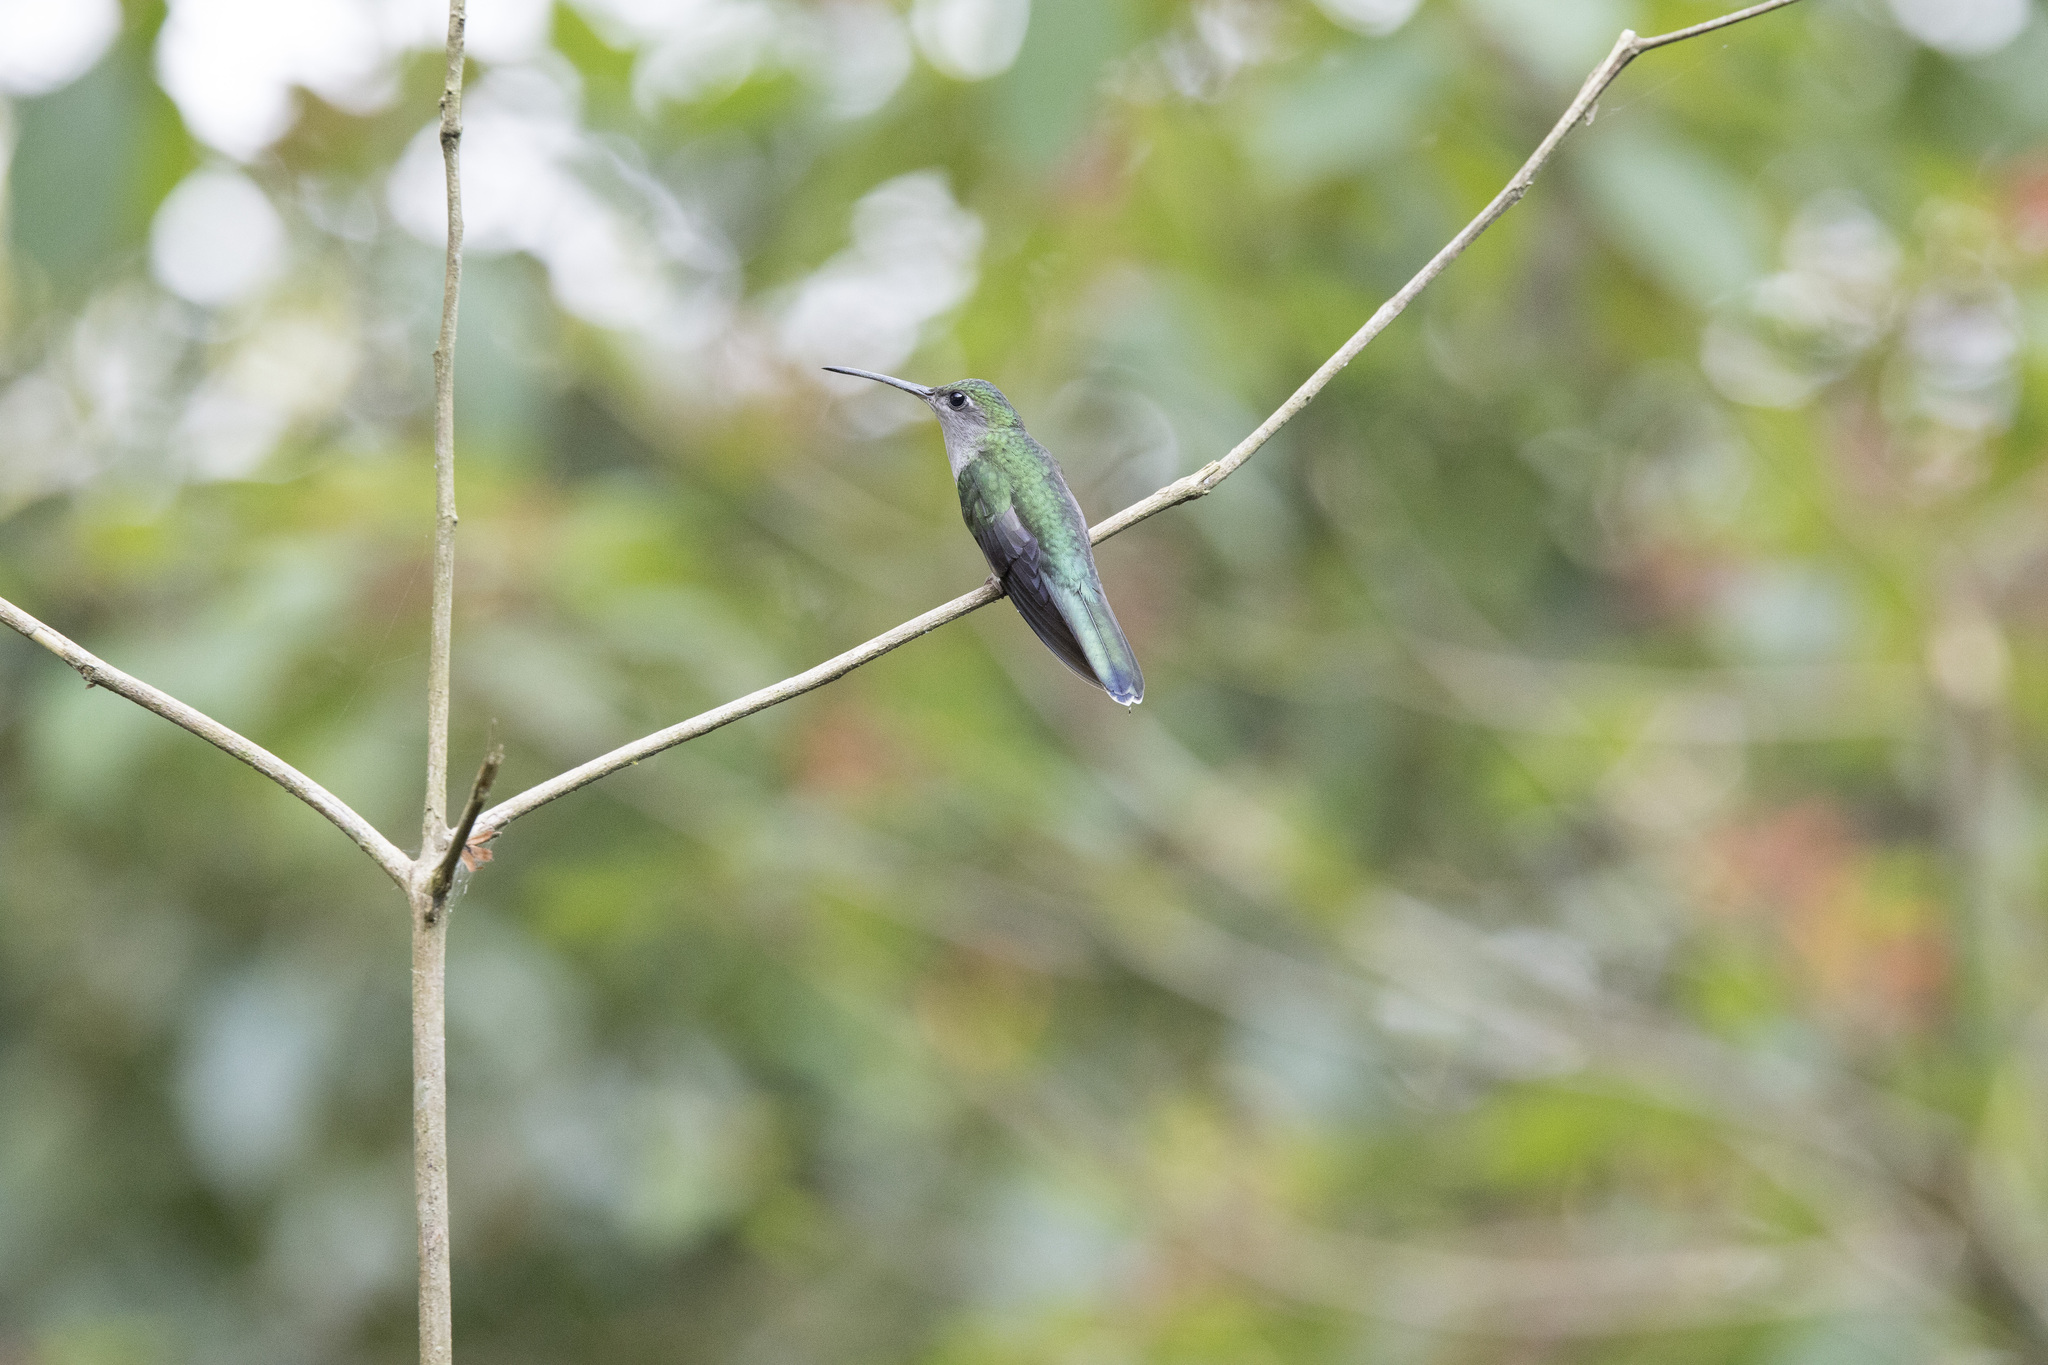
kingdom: Animalia
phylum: Chordata
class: Aves
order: Apodiformes
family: Trochilidae
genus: Campylopterus
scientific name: Campylopterus largipennis
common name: Gray-breasted sabrewing
